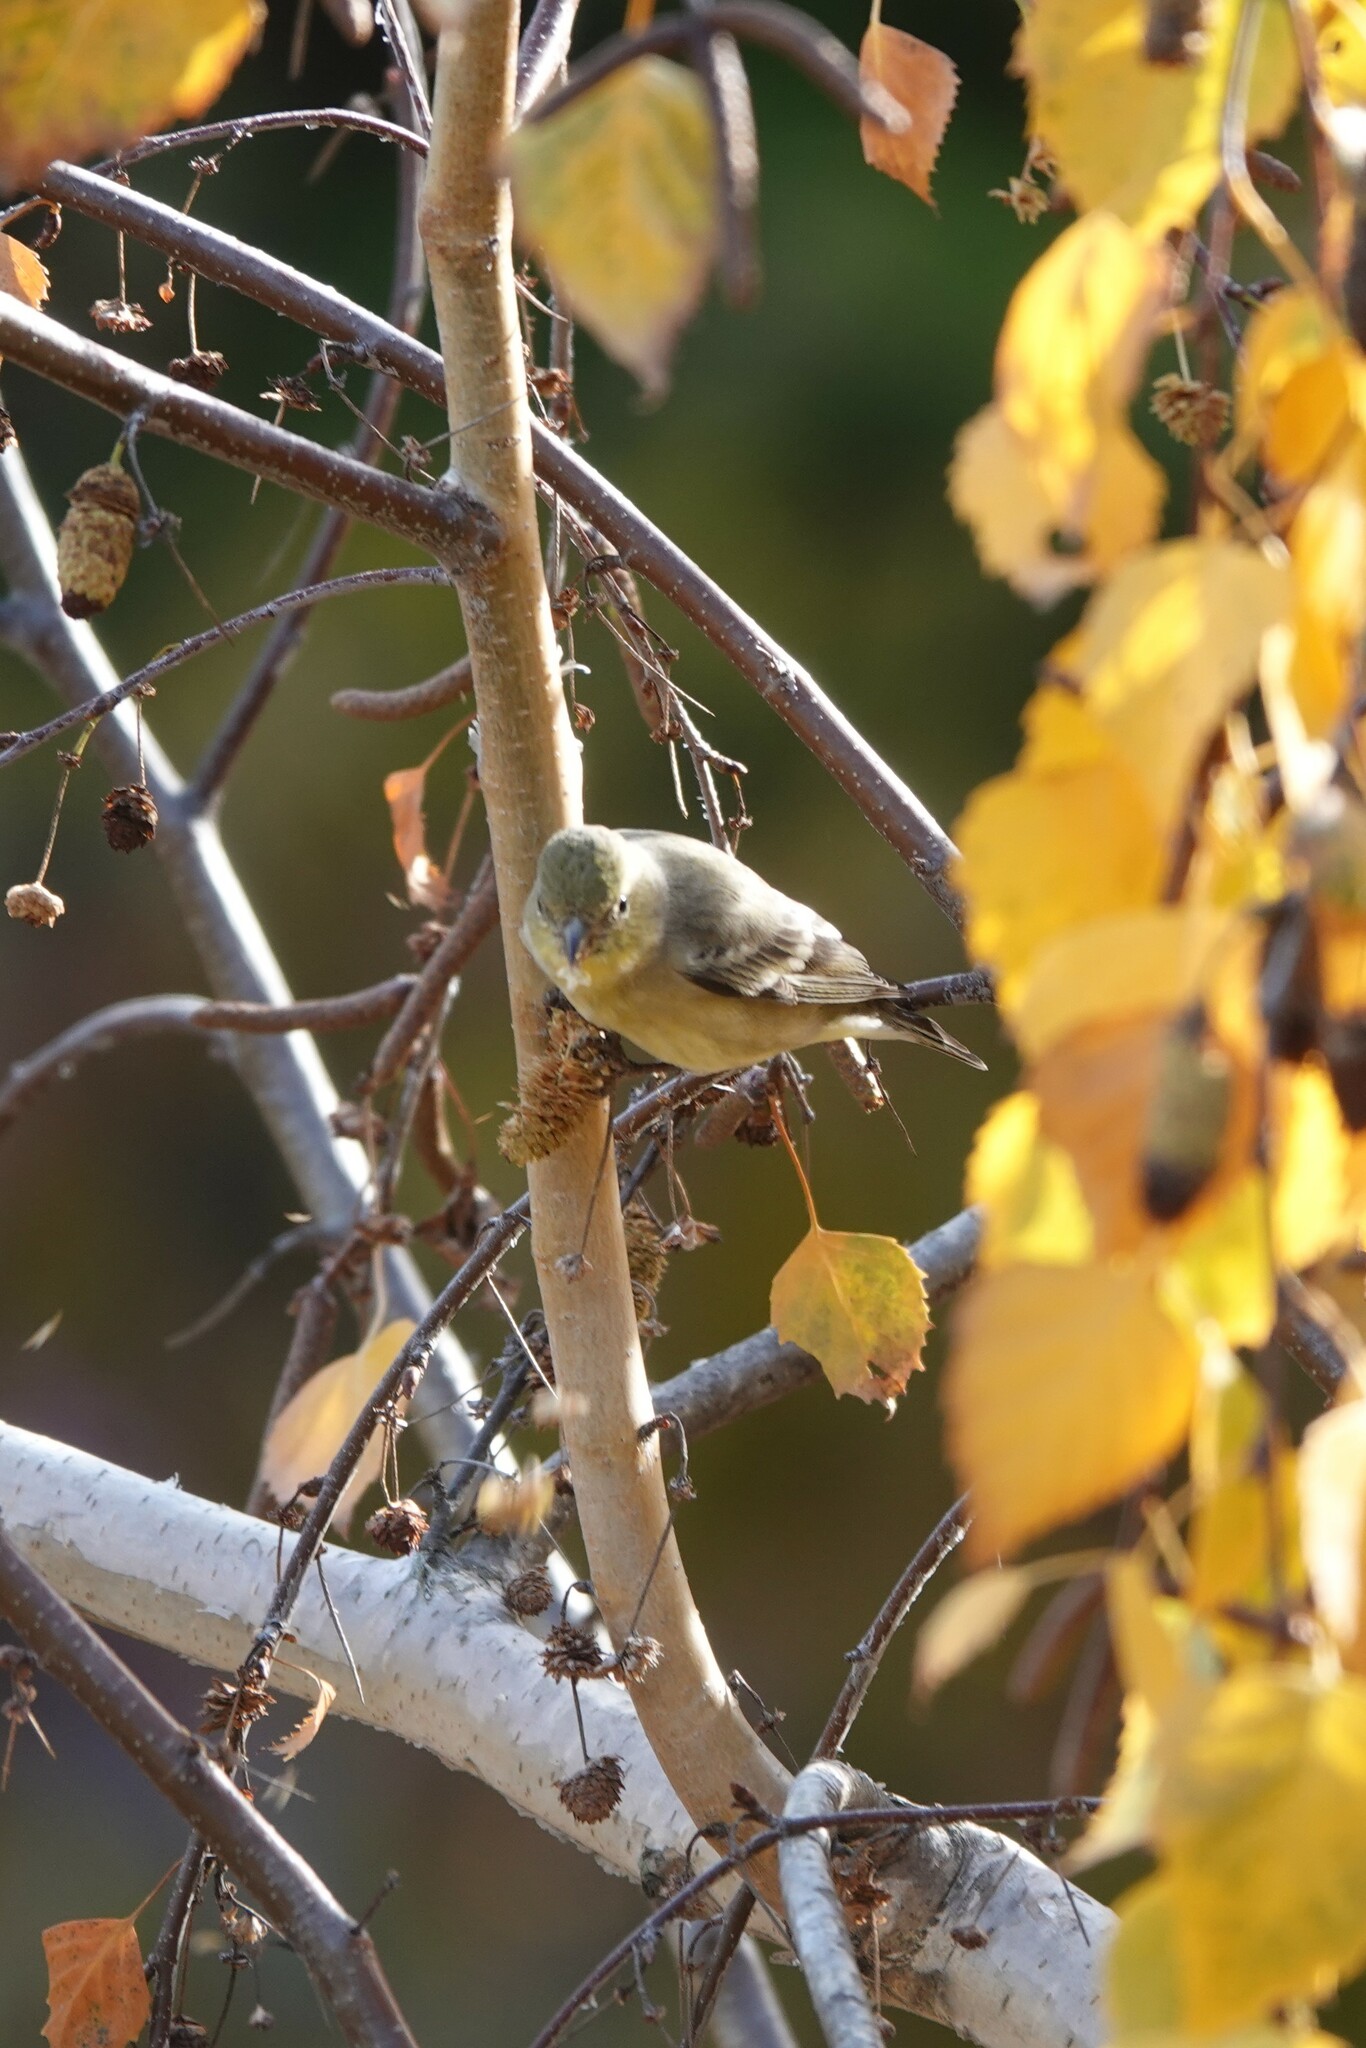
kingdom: Animalia
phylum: Chordata
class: Aves
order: Passeriformes
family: Fringillidae
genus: Spinus
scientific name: Spinus psaltria
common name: Lesser goldfinch
